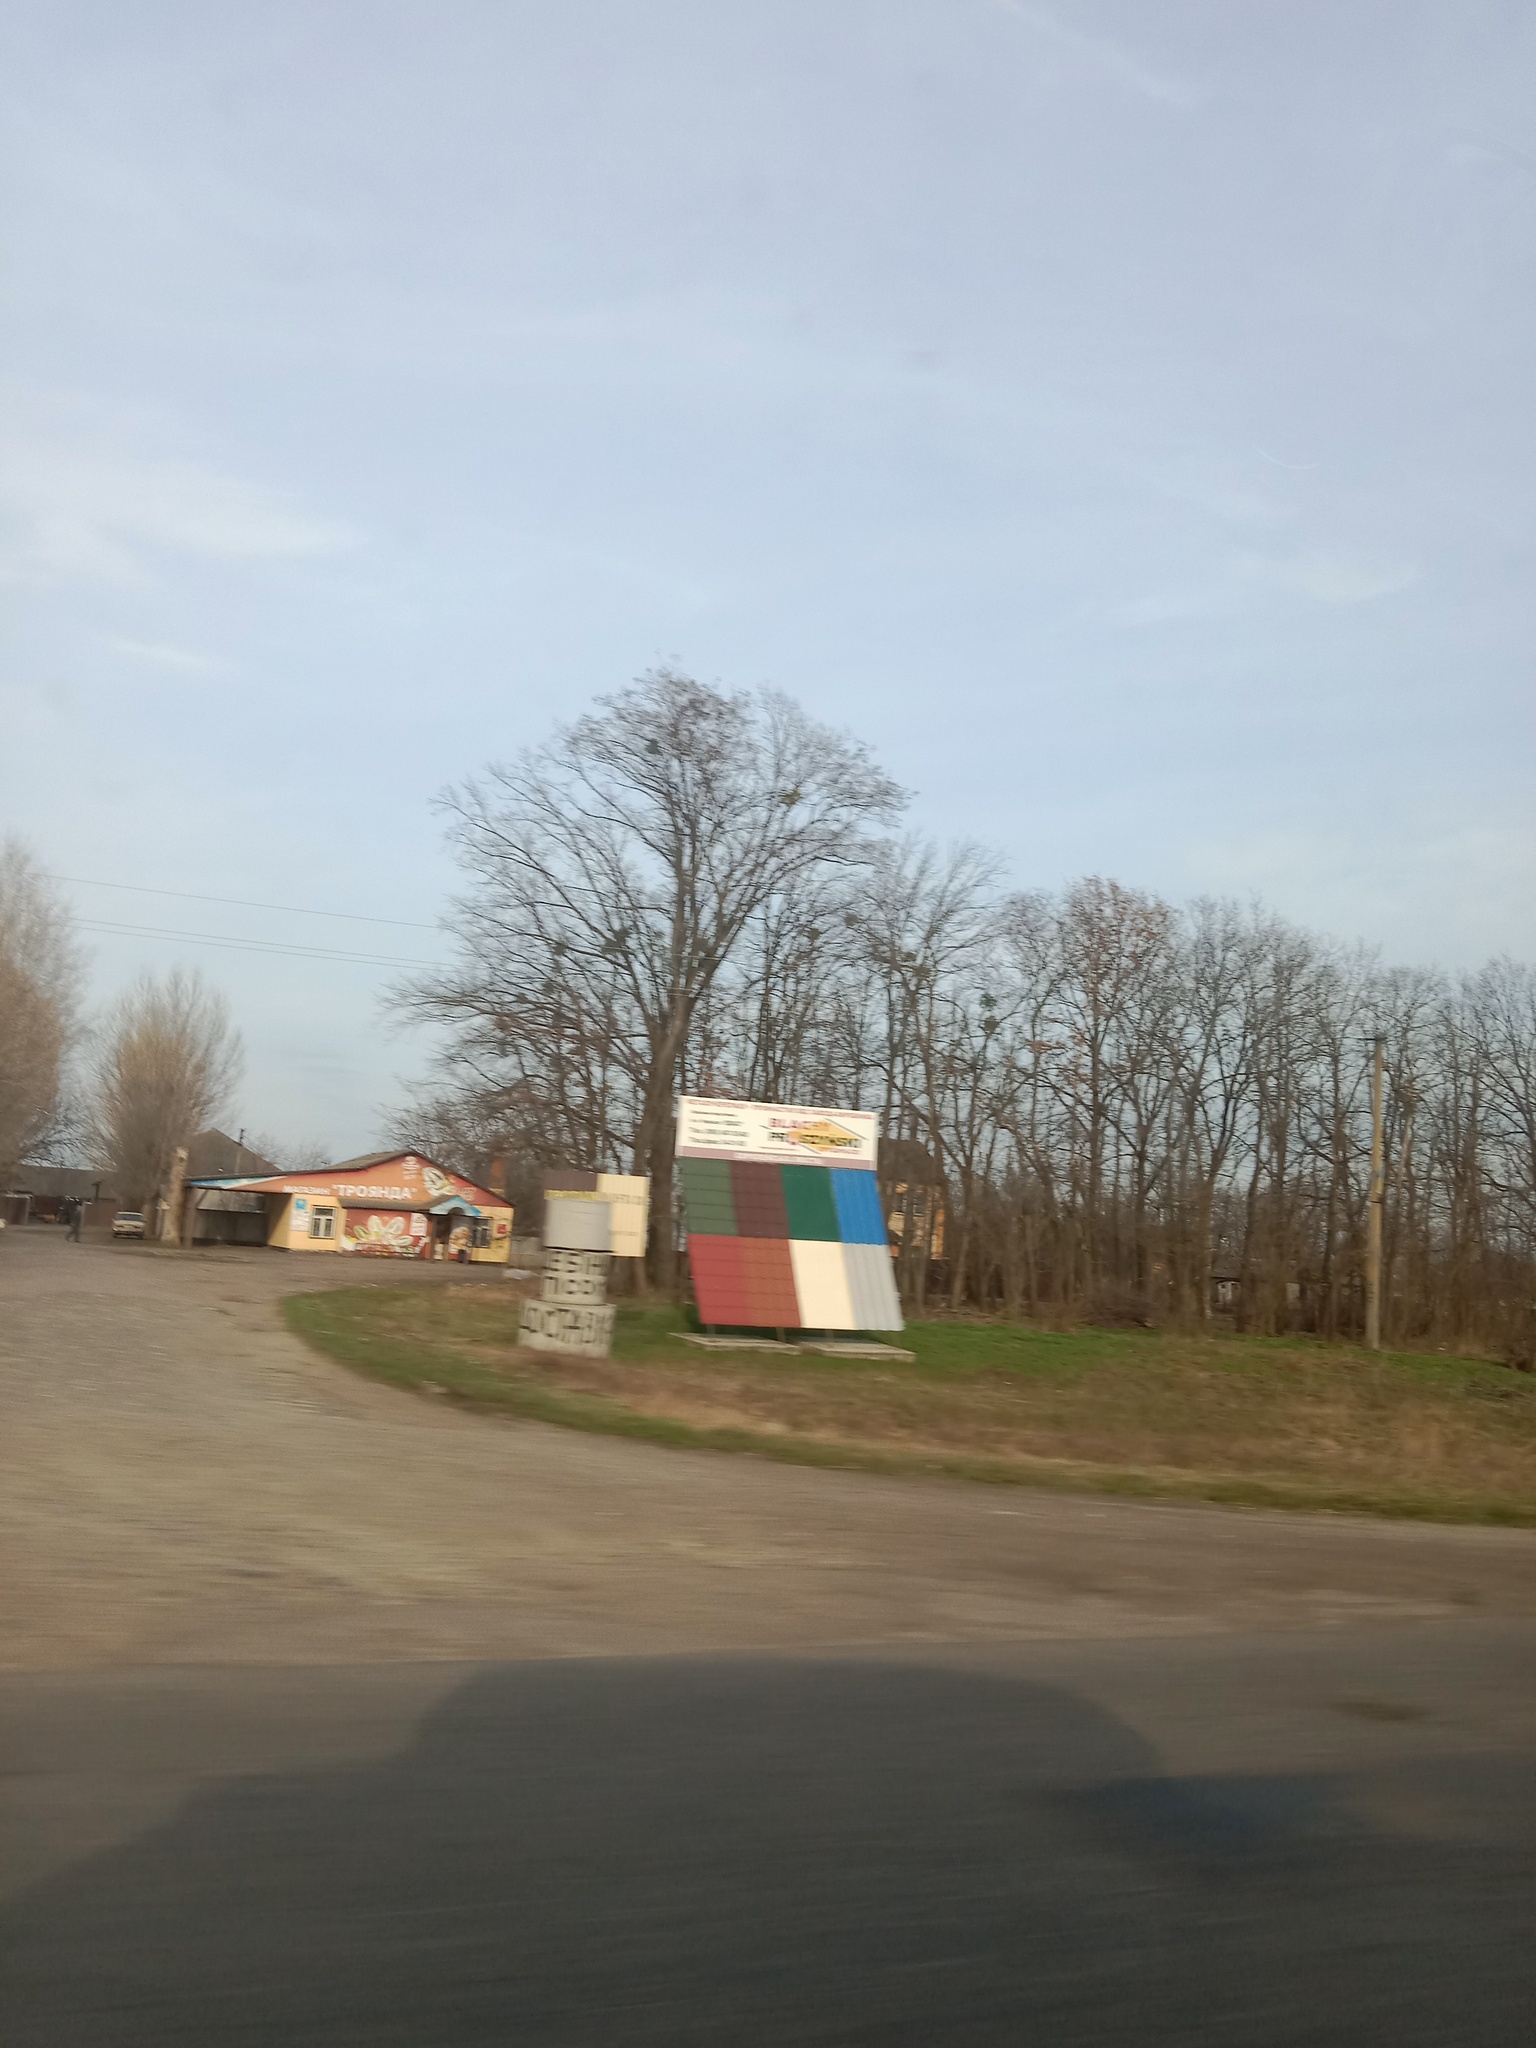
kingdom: Plantae
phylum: Tracheophyta
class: Magnoliopsida
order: Santalales
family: Viscaceae
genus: Viscum
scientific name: Viscum album
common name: Mistletoe
